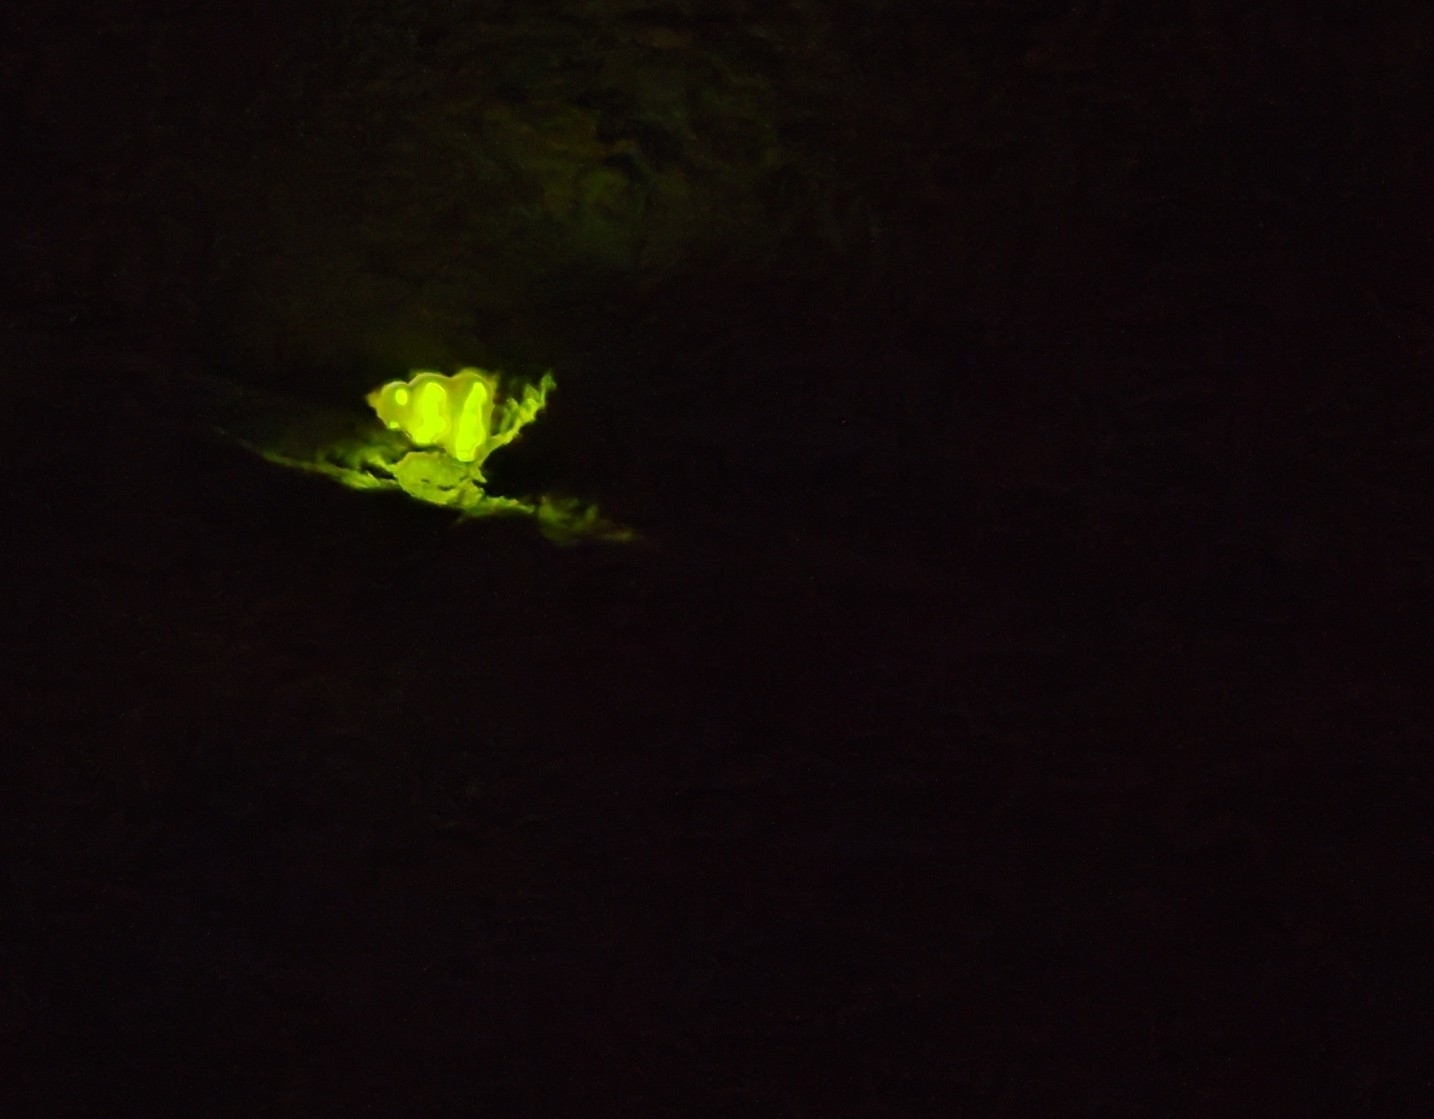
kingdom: Animalia
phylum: Arthropoda
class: Insecta
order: Coleoptera
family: Lampyridae
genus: Lampyris
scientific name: Lampyris noctiluca
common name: Glow-worm
